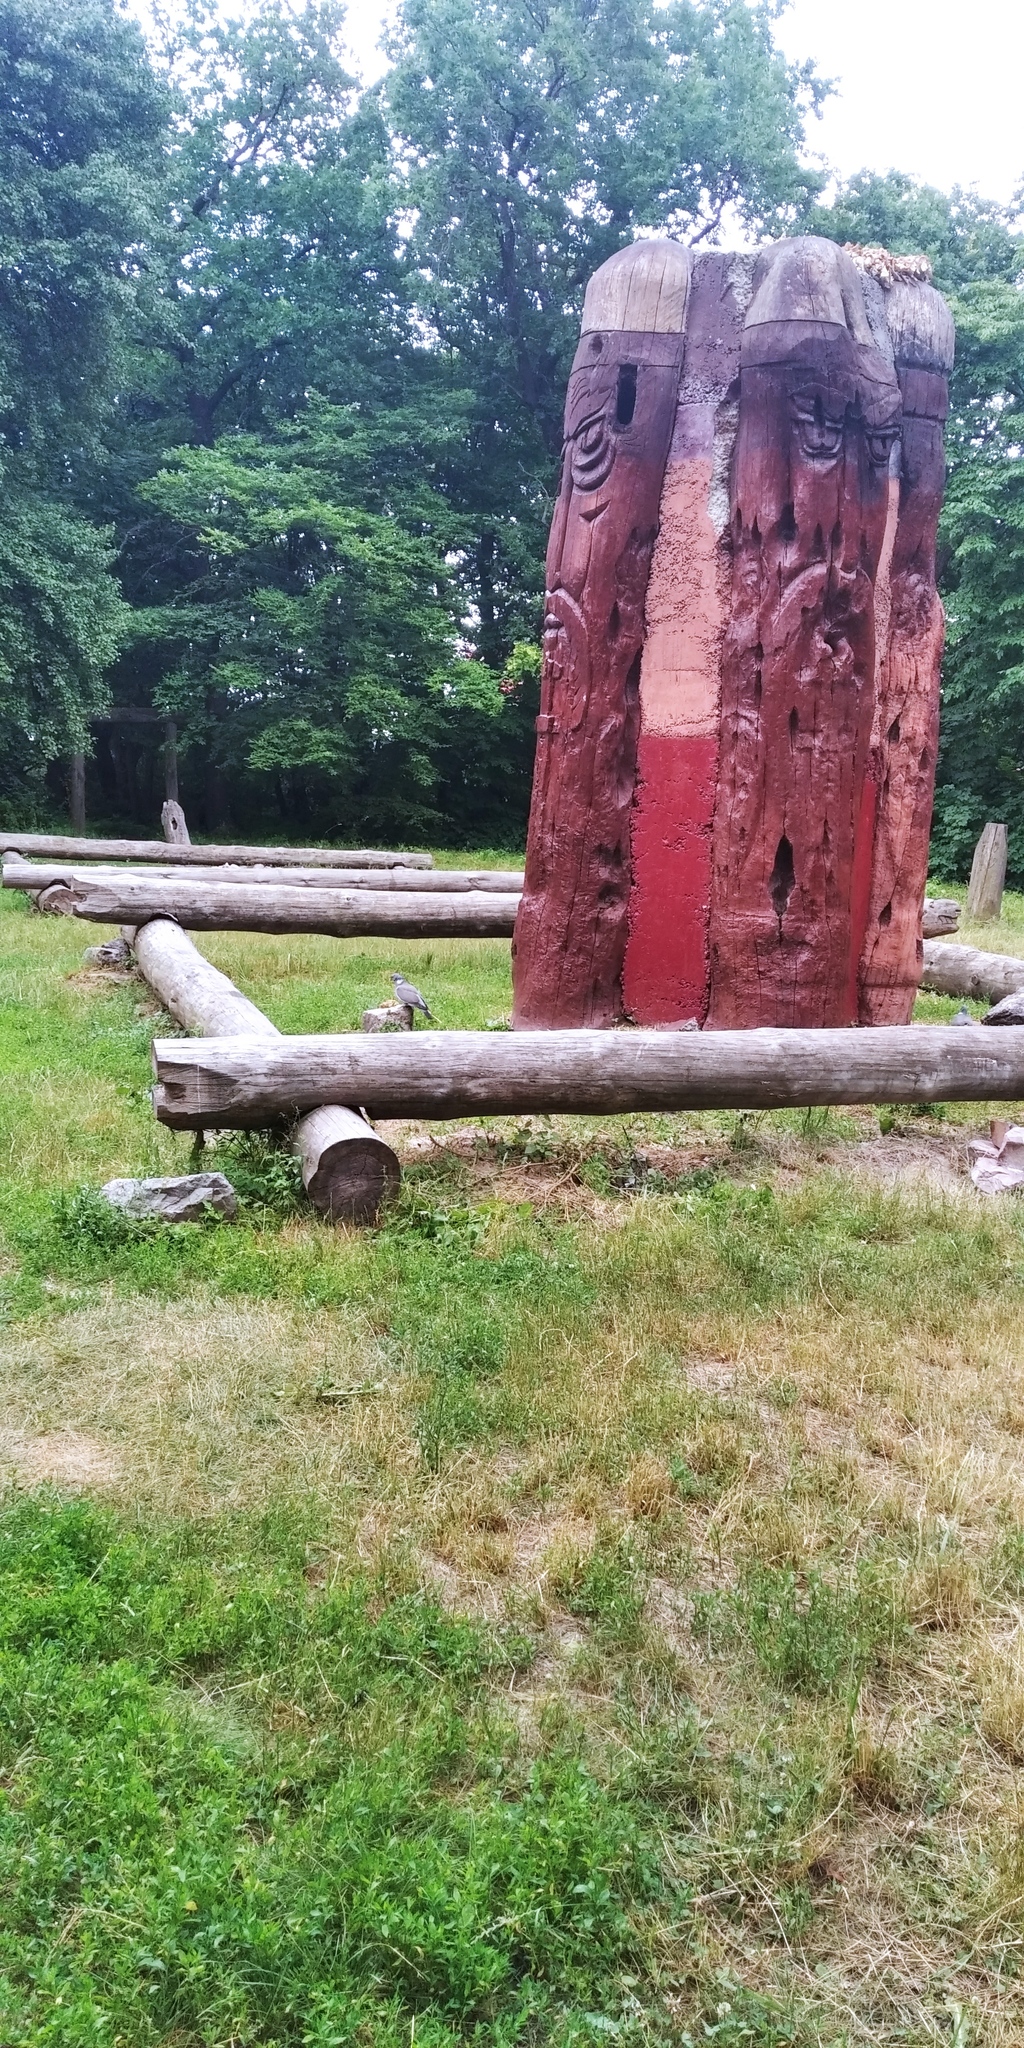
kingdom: Animalia
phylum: Chordata
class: Aves
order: Columbiformes
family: Columbidae
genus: Columba
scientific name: Columba palumbus
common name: Common wood pigeon
